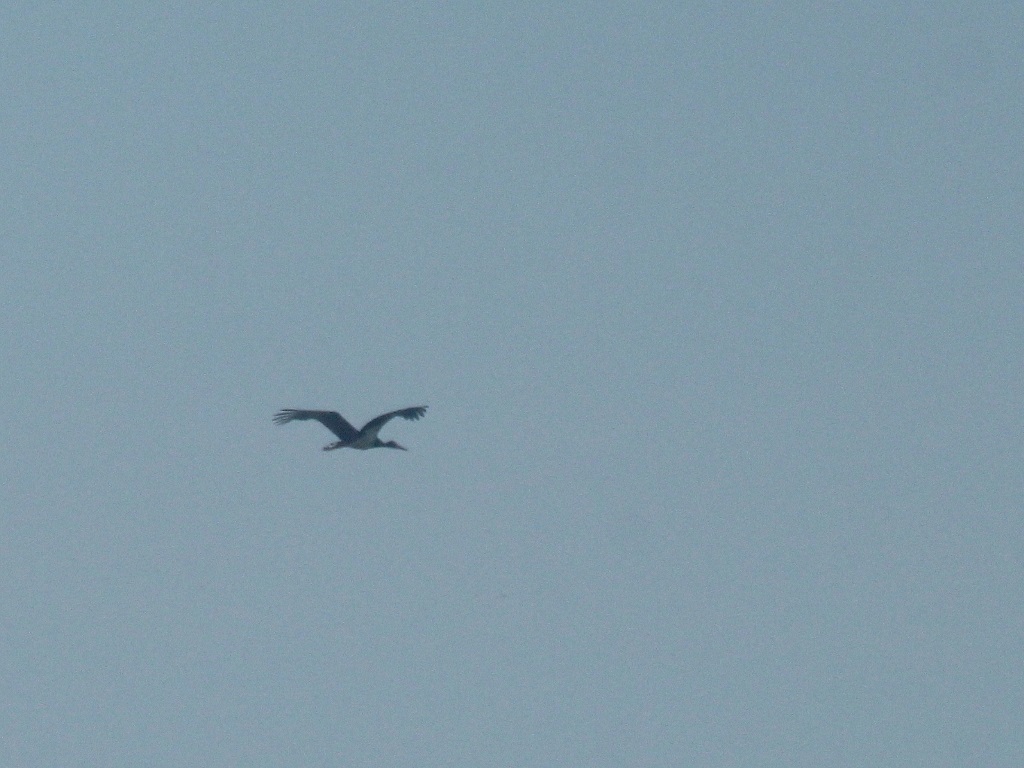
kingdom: Animalia
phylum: Chordata
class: Aves
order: Ciconiiformes
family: Ciconiidae
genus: Ciconia
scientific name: Ciconia nigra
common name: Black stork
